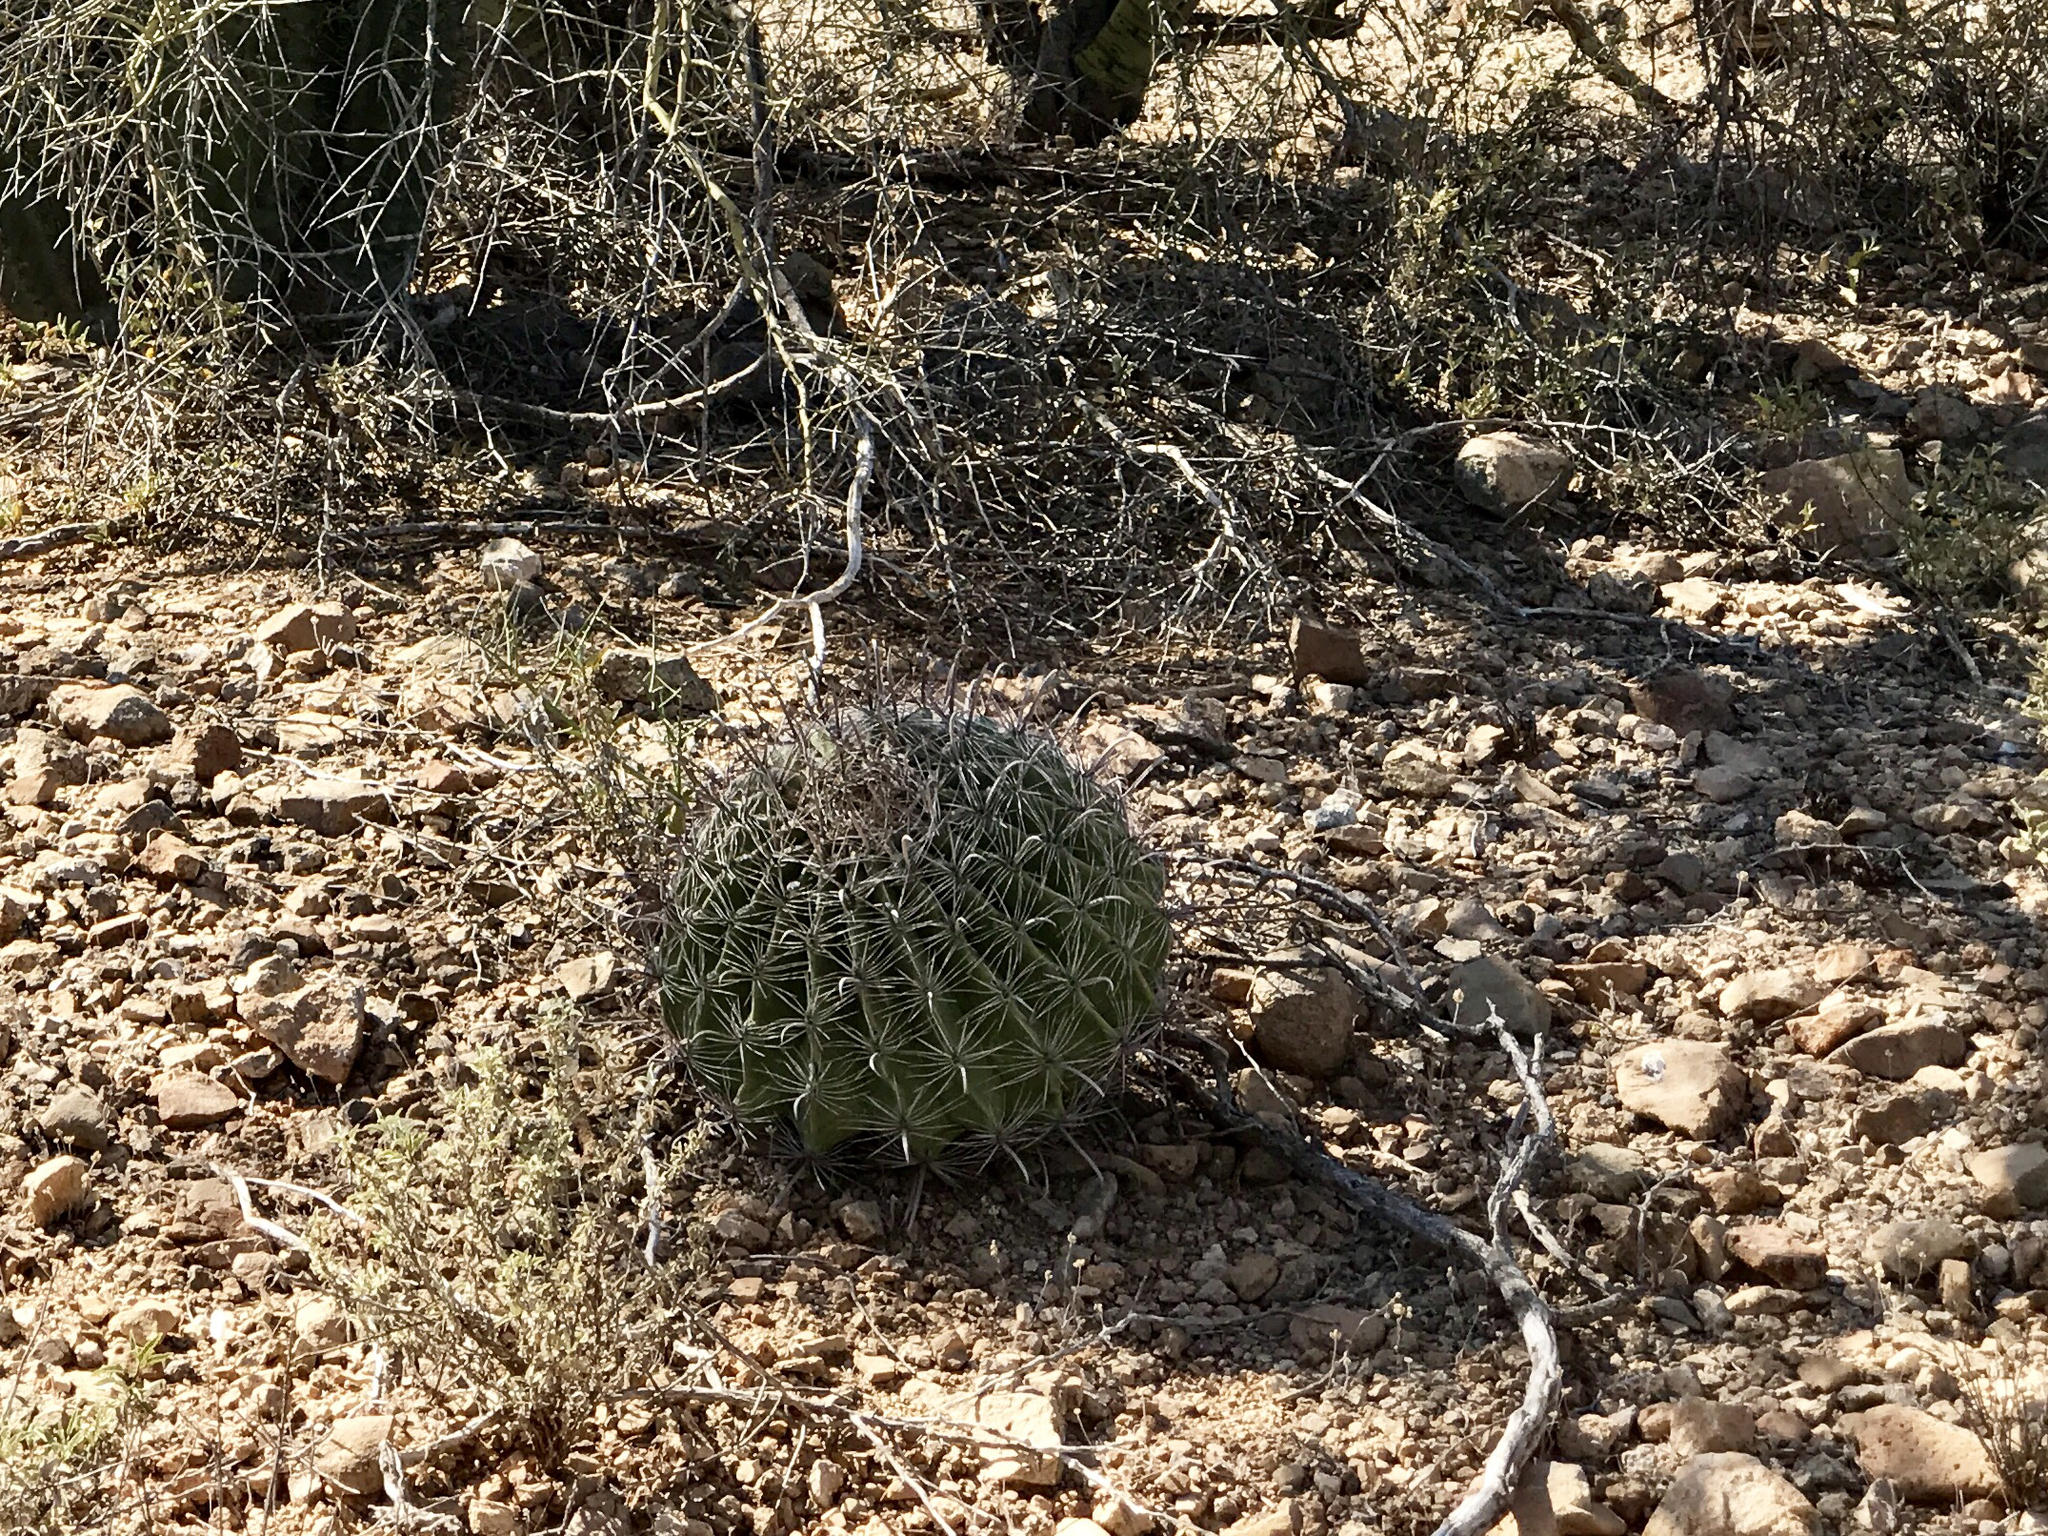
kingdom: Plantae
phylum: Tracheophyta
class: Magnoliopsida
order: Caryophyllales
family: Cactaceae
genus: Ferocactus
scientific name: Ferocactus wislizeni
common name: Candy barrel cactus
